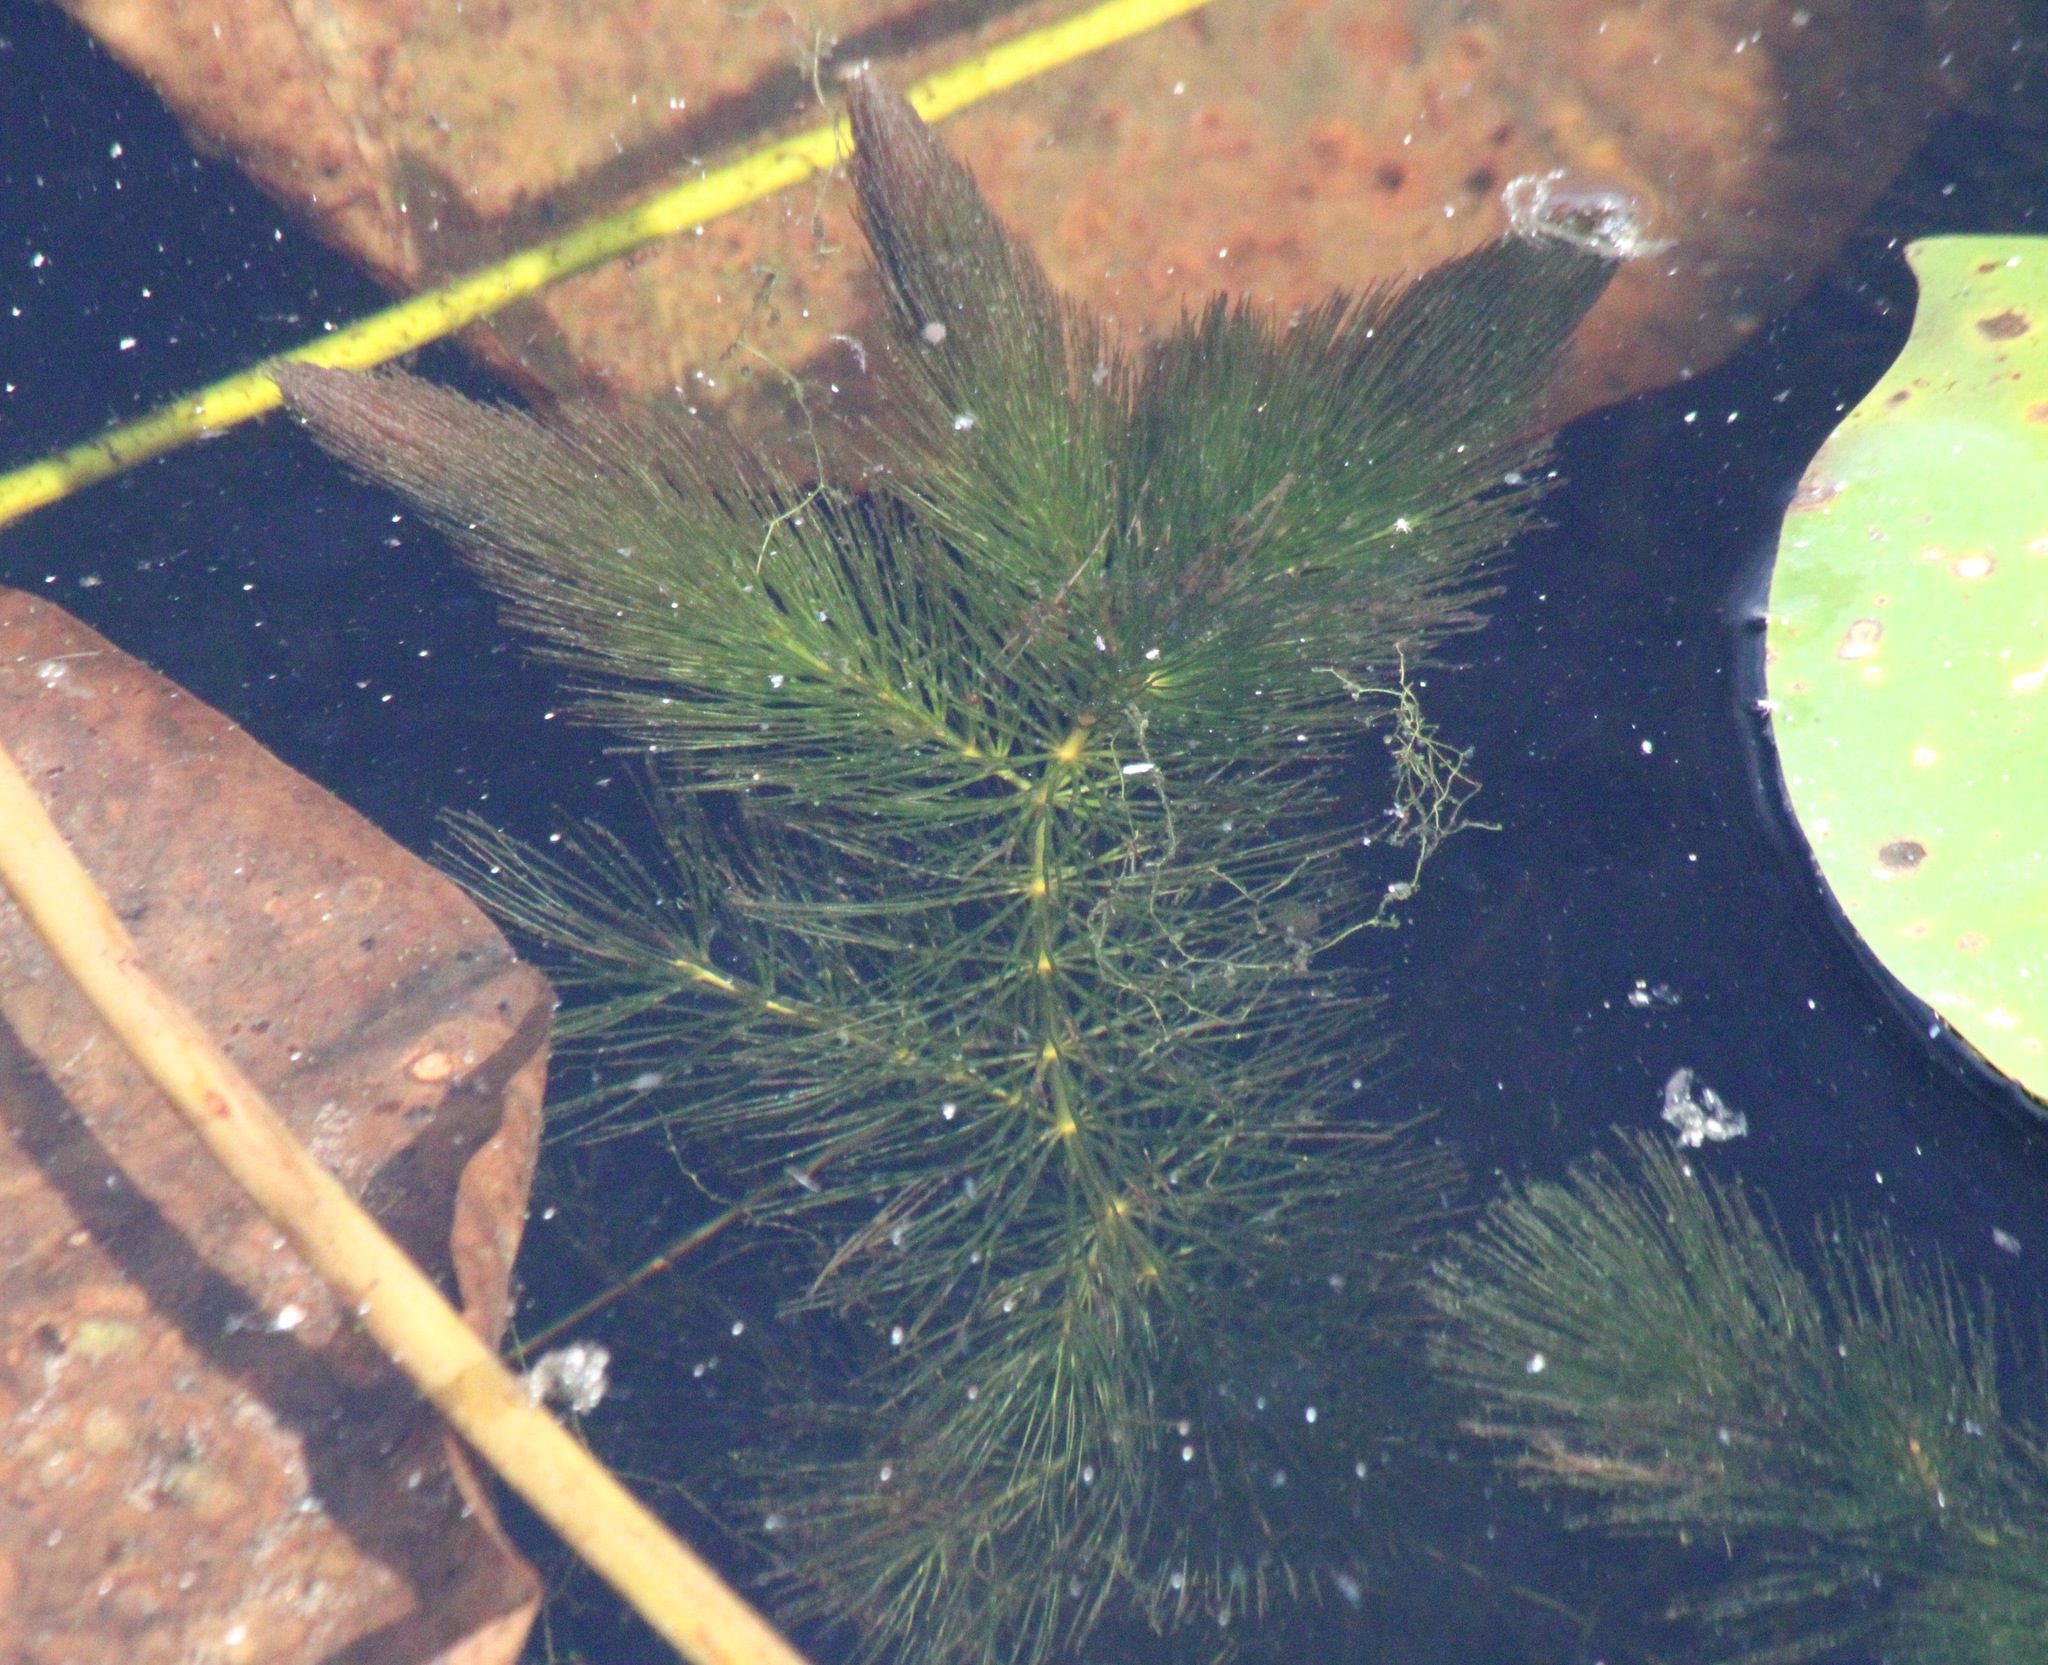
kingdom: Plantae
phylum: Tracheophyta
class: Magnoliopsida
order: Ceratophyllales
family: Ceratophyllaceae
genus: Ceratophyllum
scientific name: Ceratophyllum demersum
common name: Rigid hornwort
